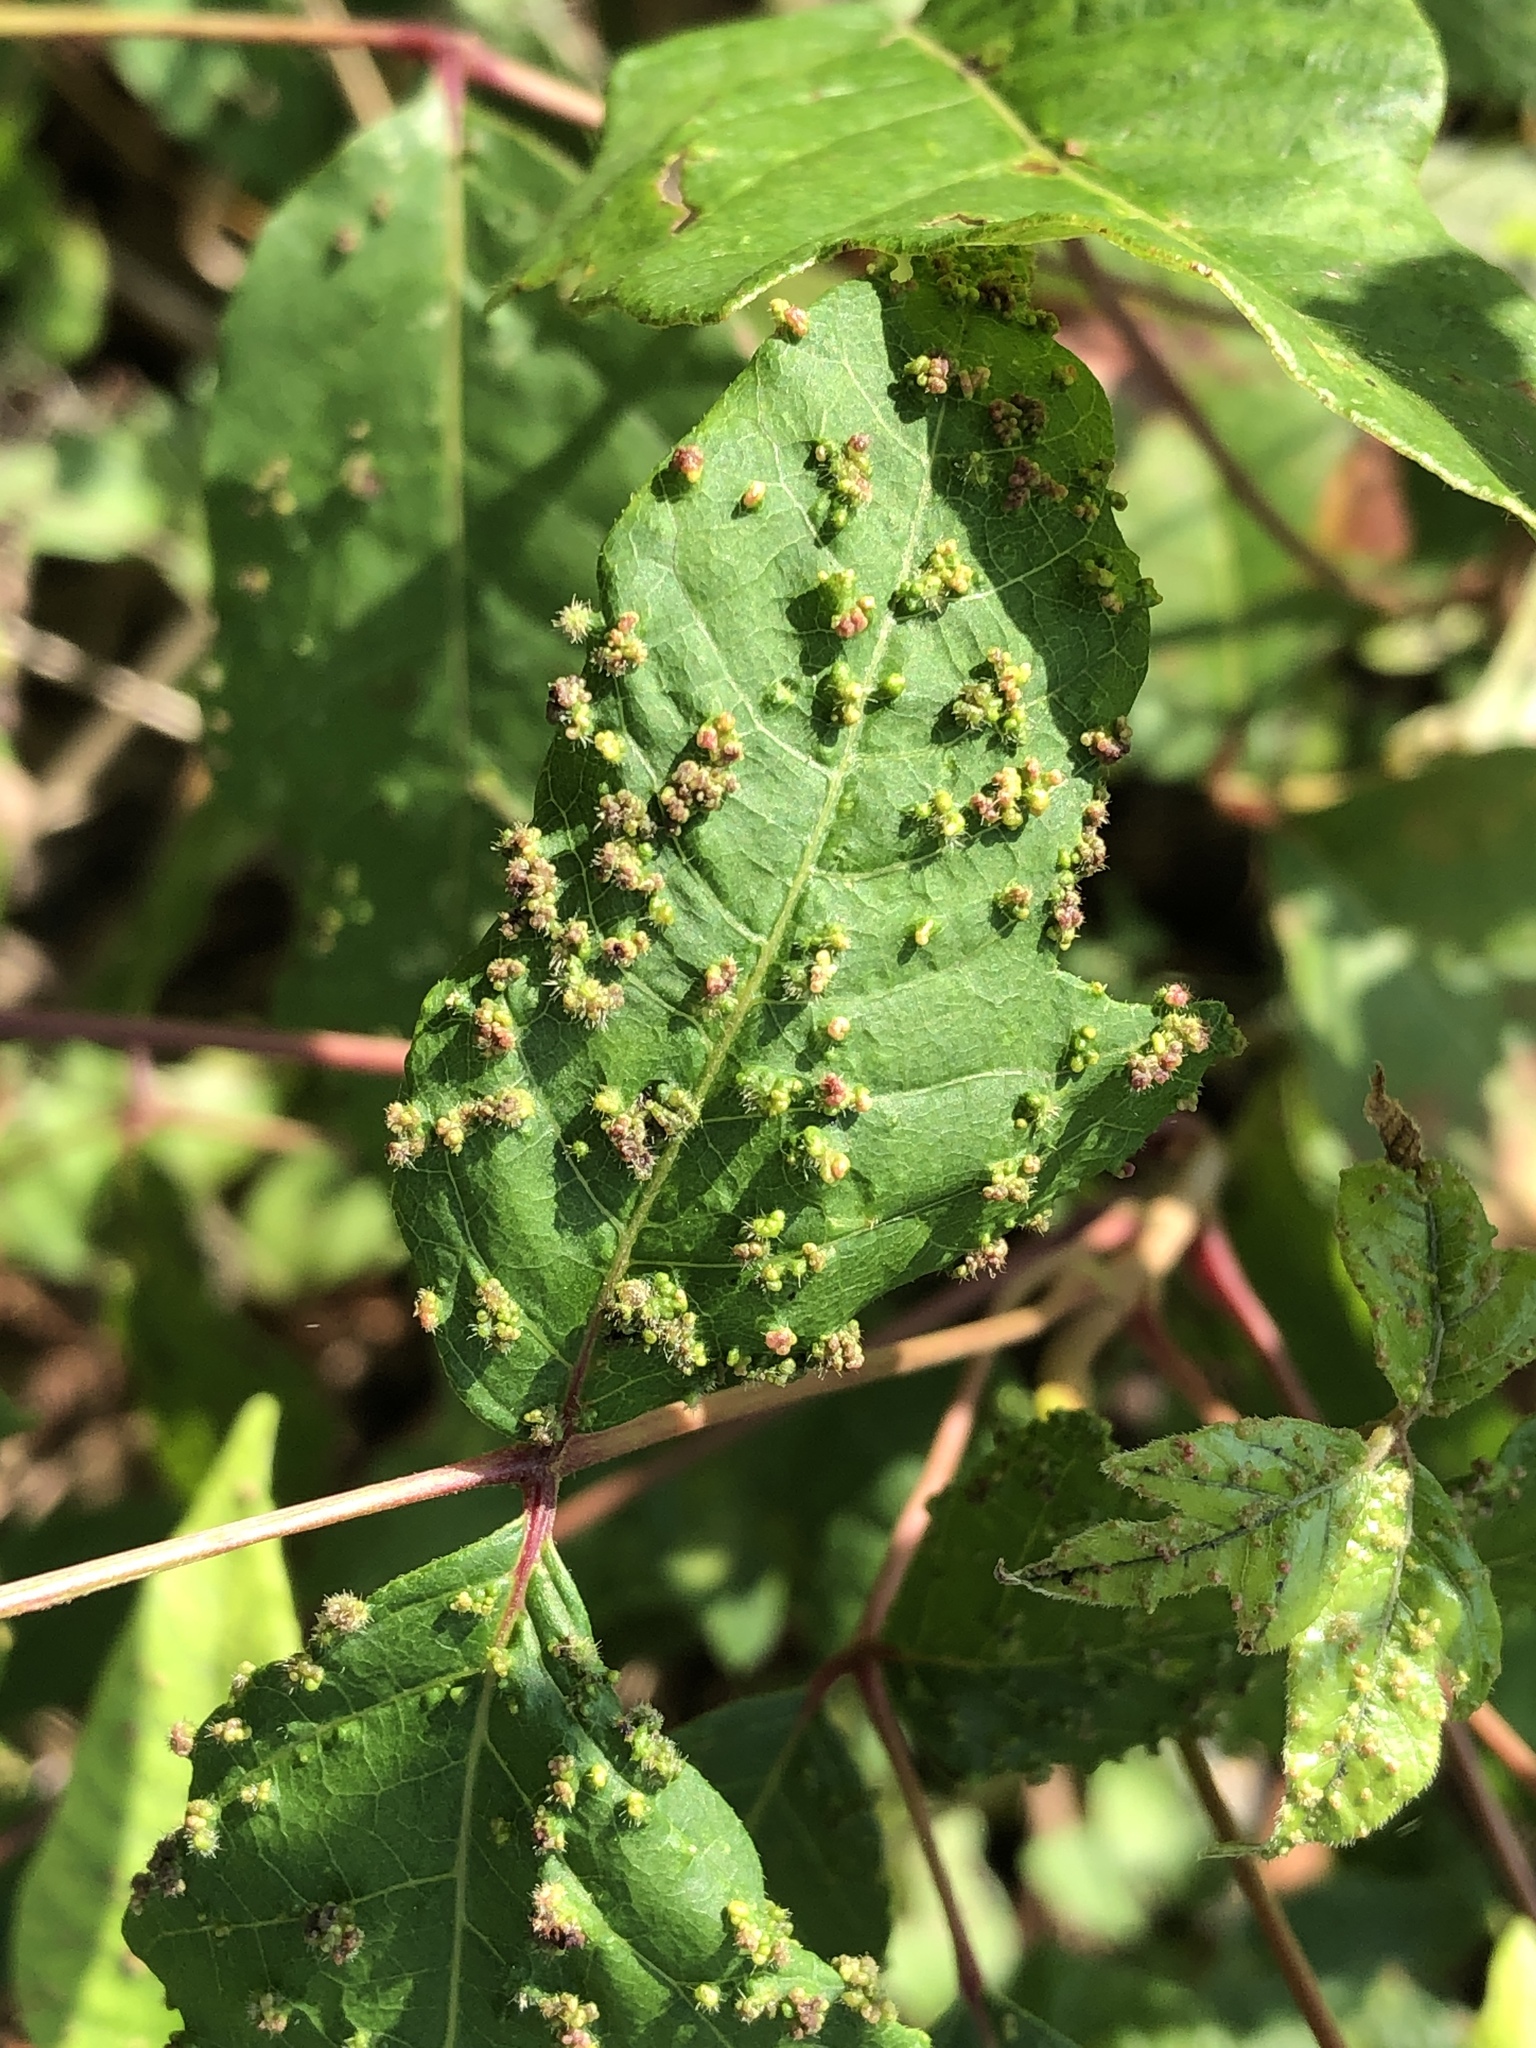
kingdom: Animalia
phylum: Arthropoda
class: Arachnida
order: Trombidiformes
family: Eriophyidae
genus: Aculops
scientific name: Aculops
